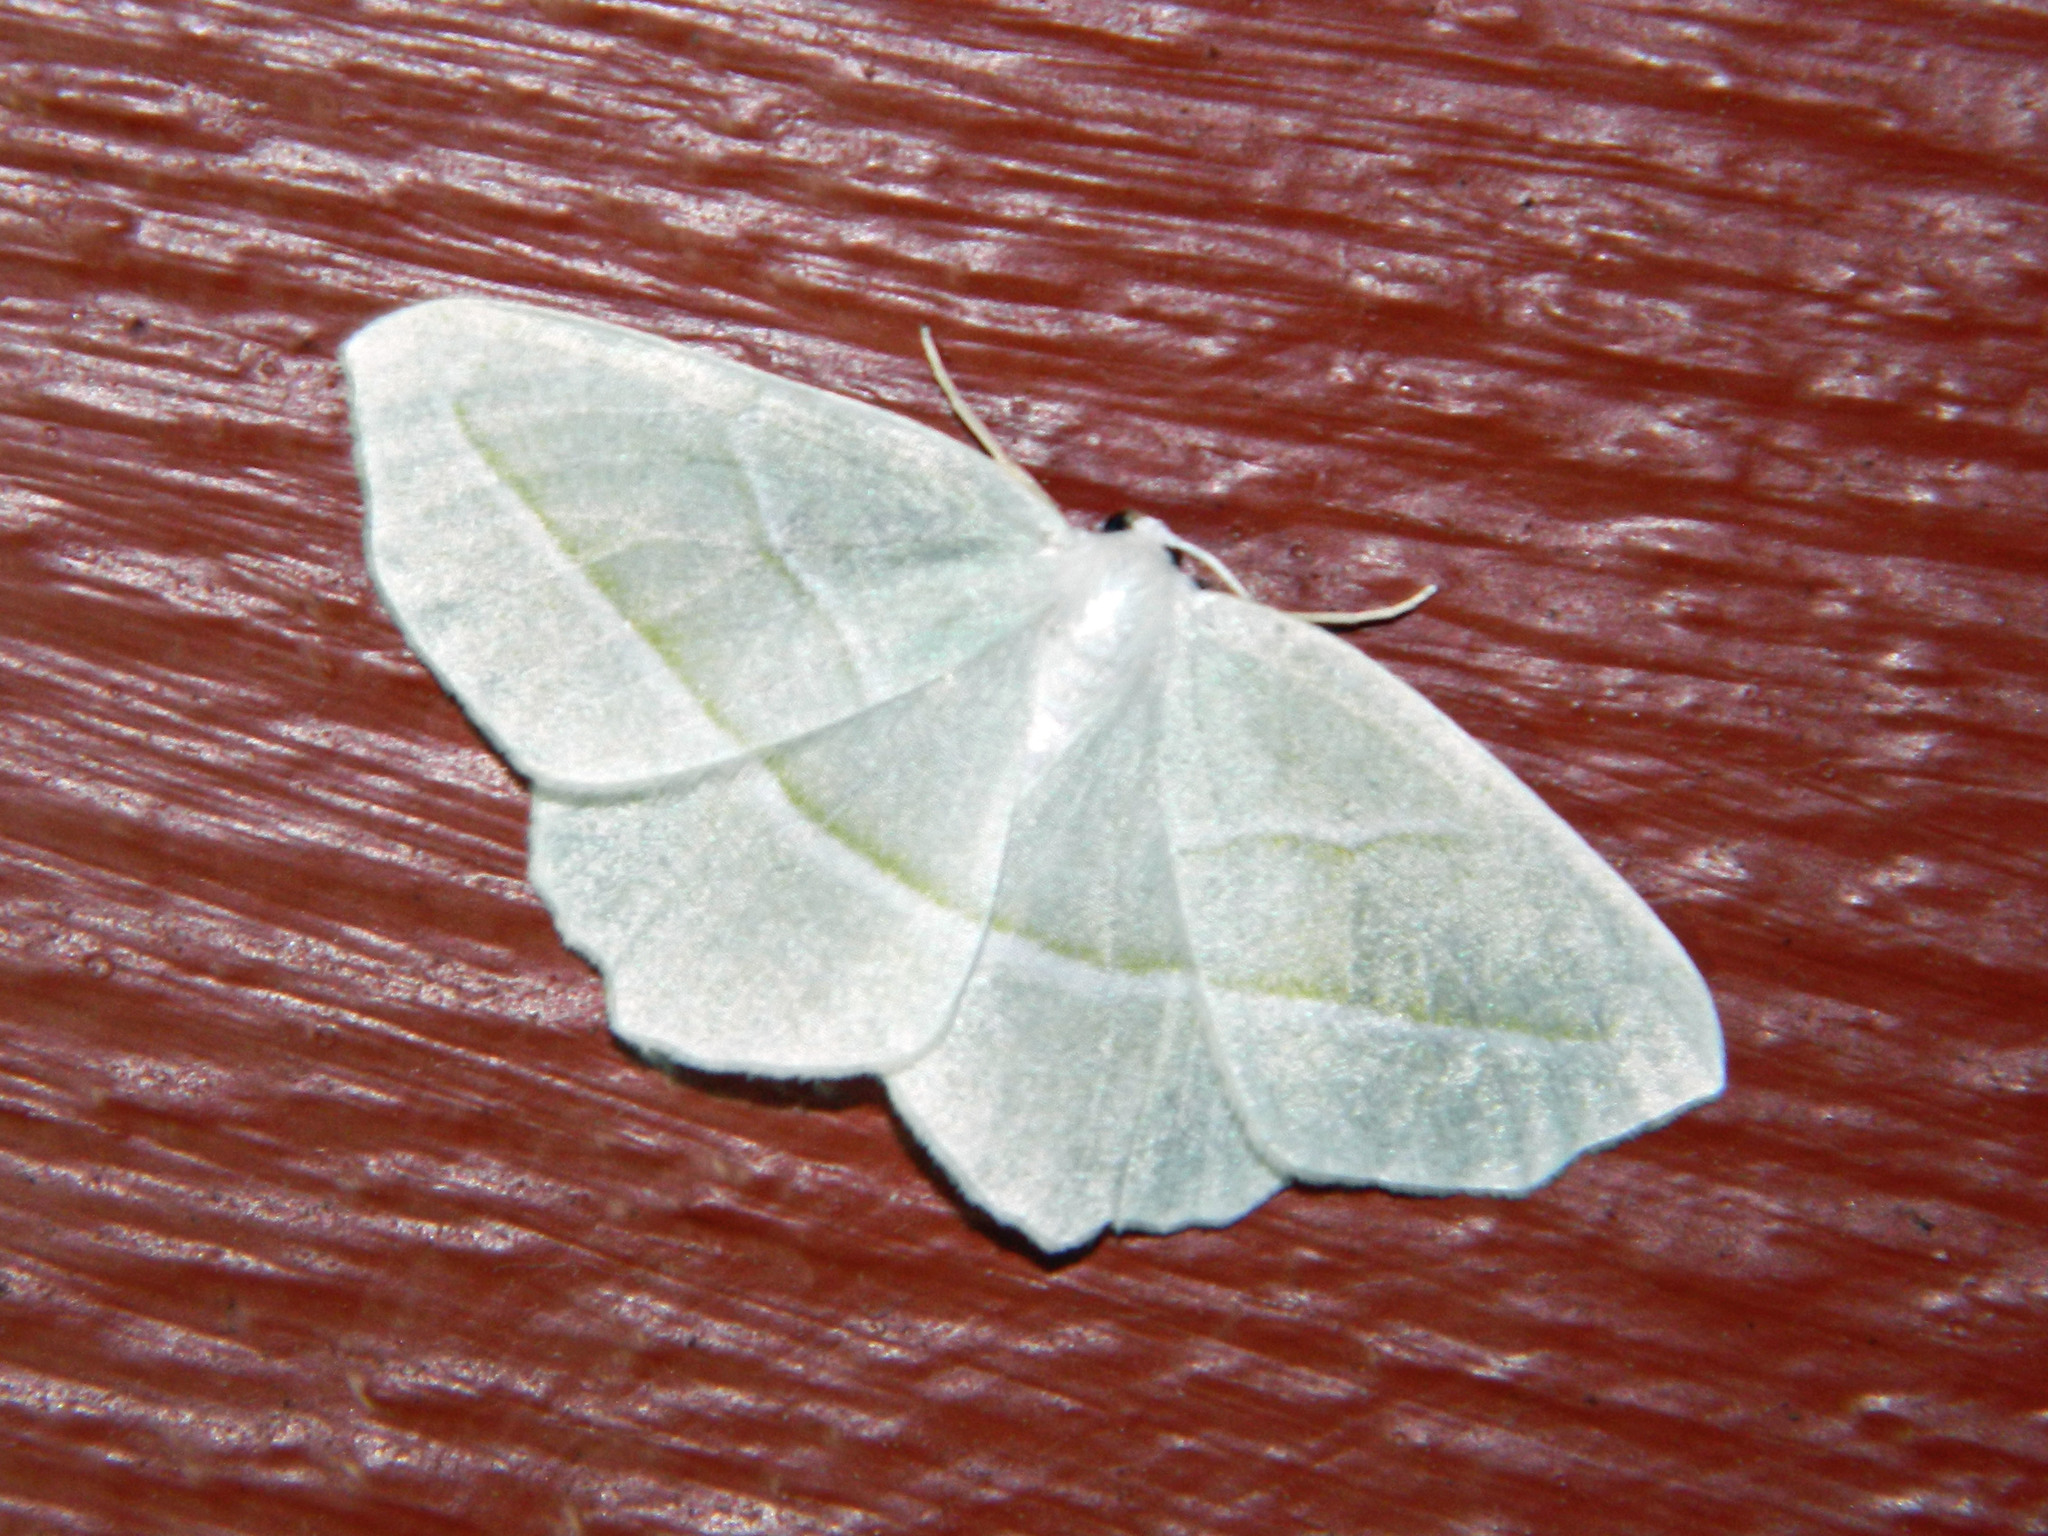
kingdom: Animalia
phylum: Arthropoda
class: Insecta
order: Lepidoptera
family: Geometridae
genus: Campaea
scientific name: Campaea perlata
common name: Fringed looper
